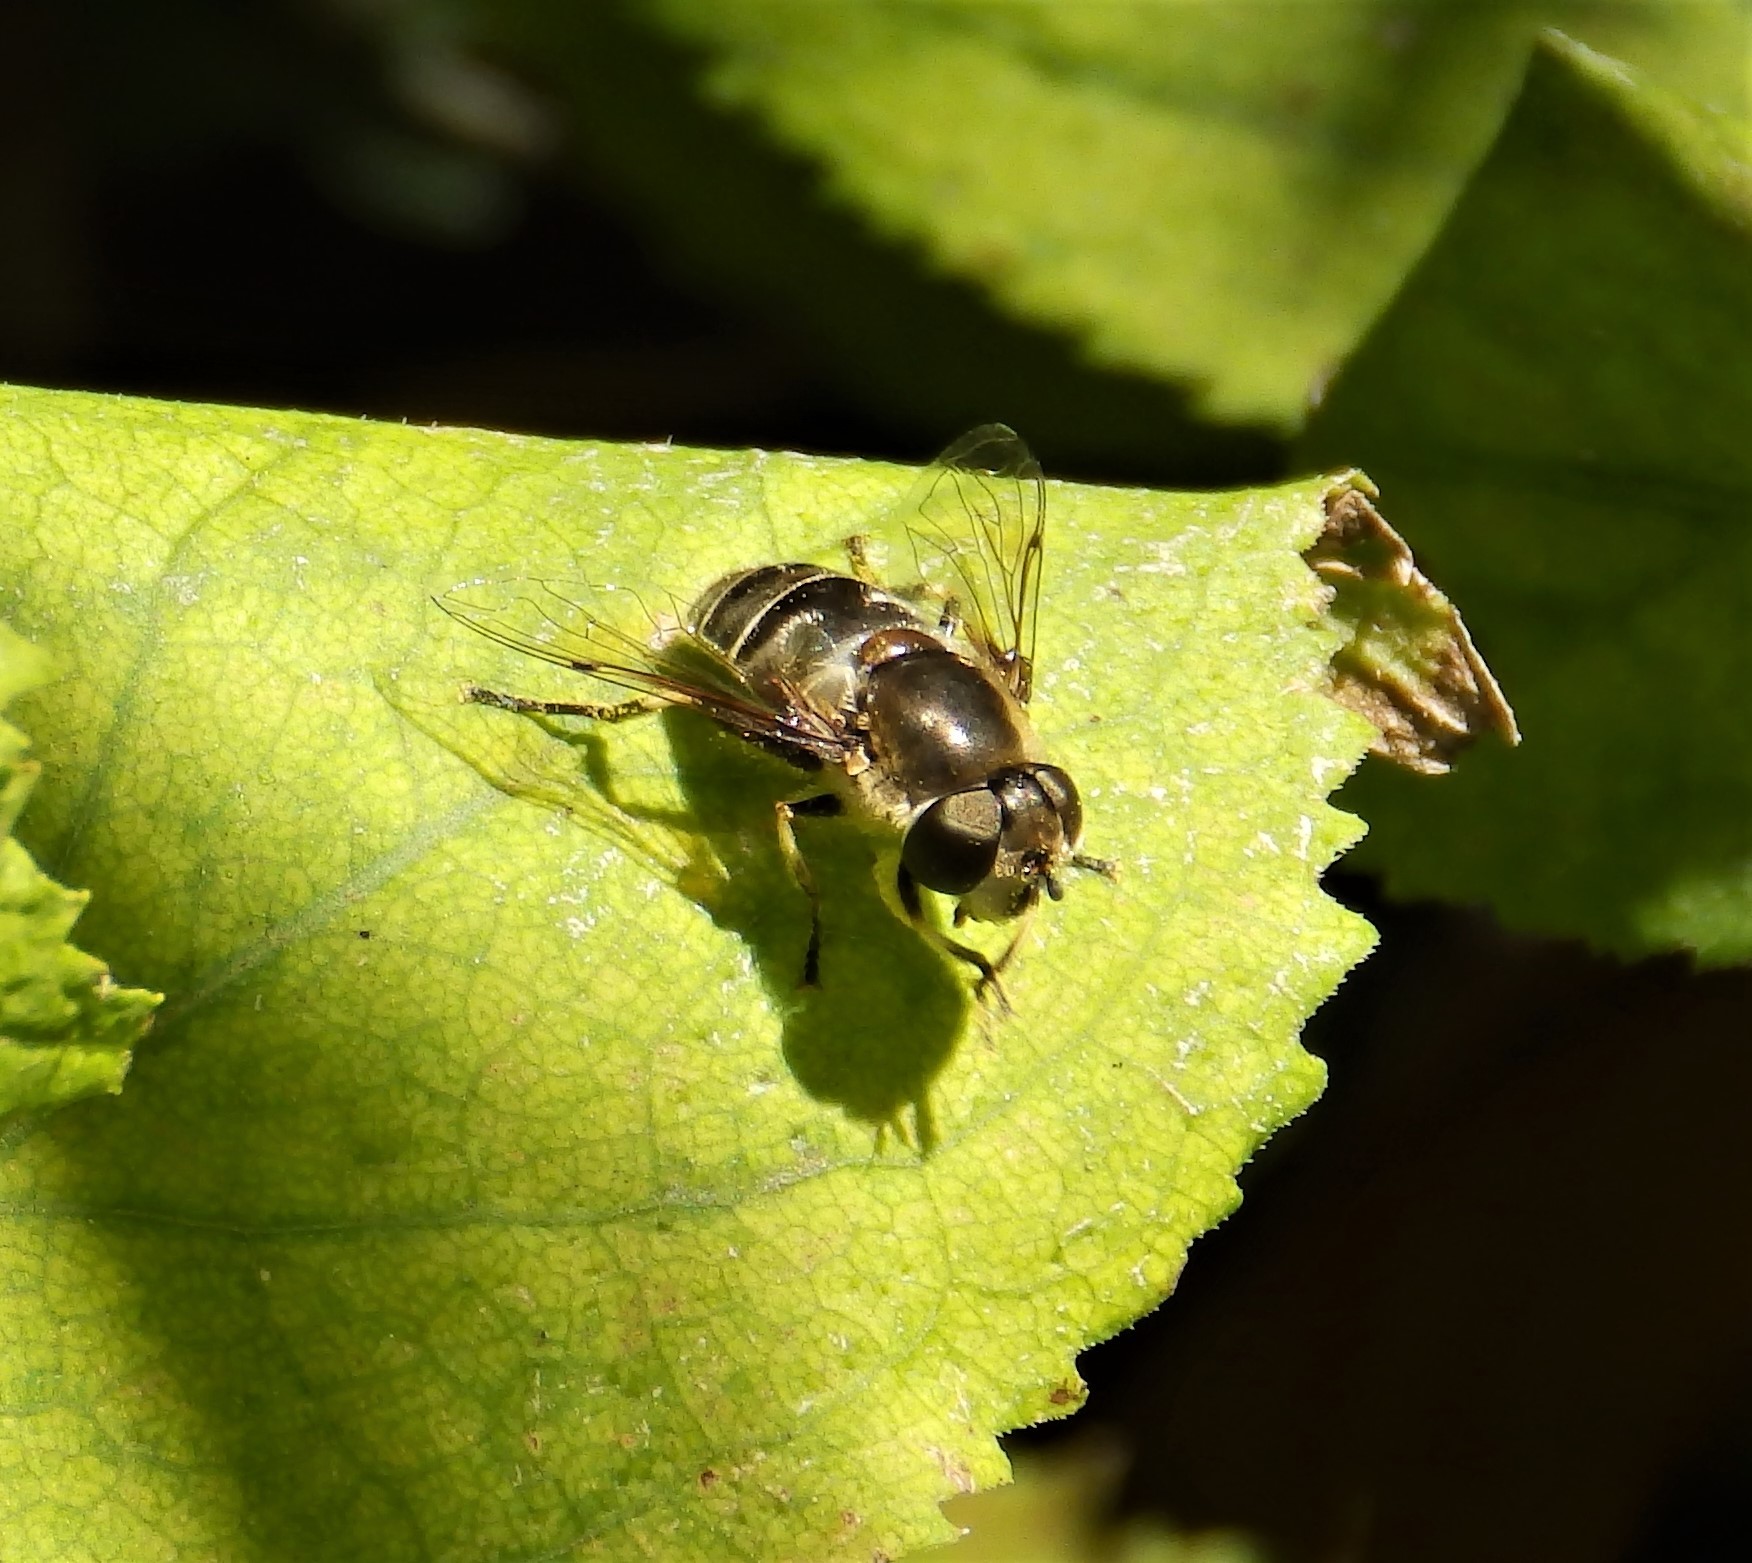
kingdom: Animalia
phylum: Arthropoda
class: Insecta
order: Diptera
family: Syrphidae
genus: Eristalis
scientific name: Eristalis dimidiata
